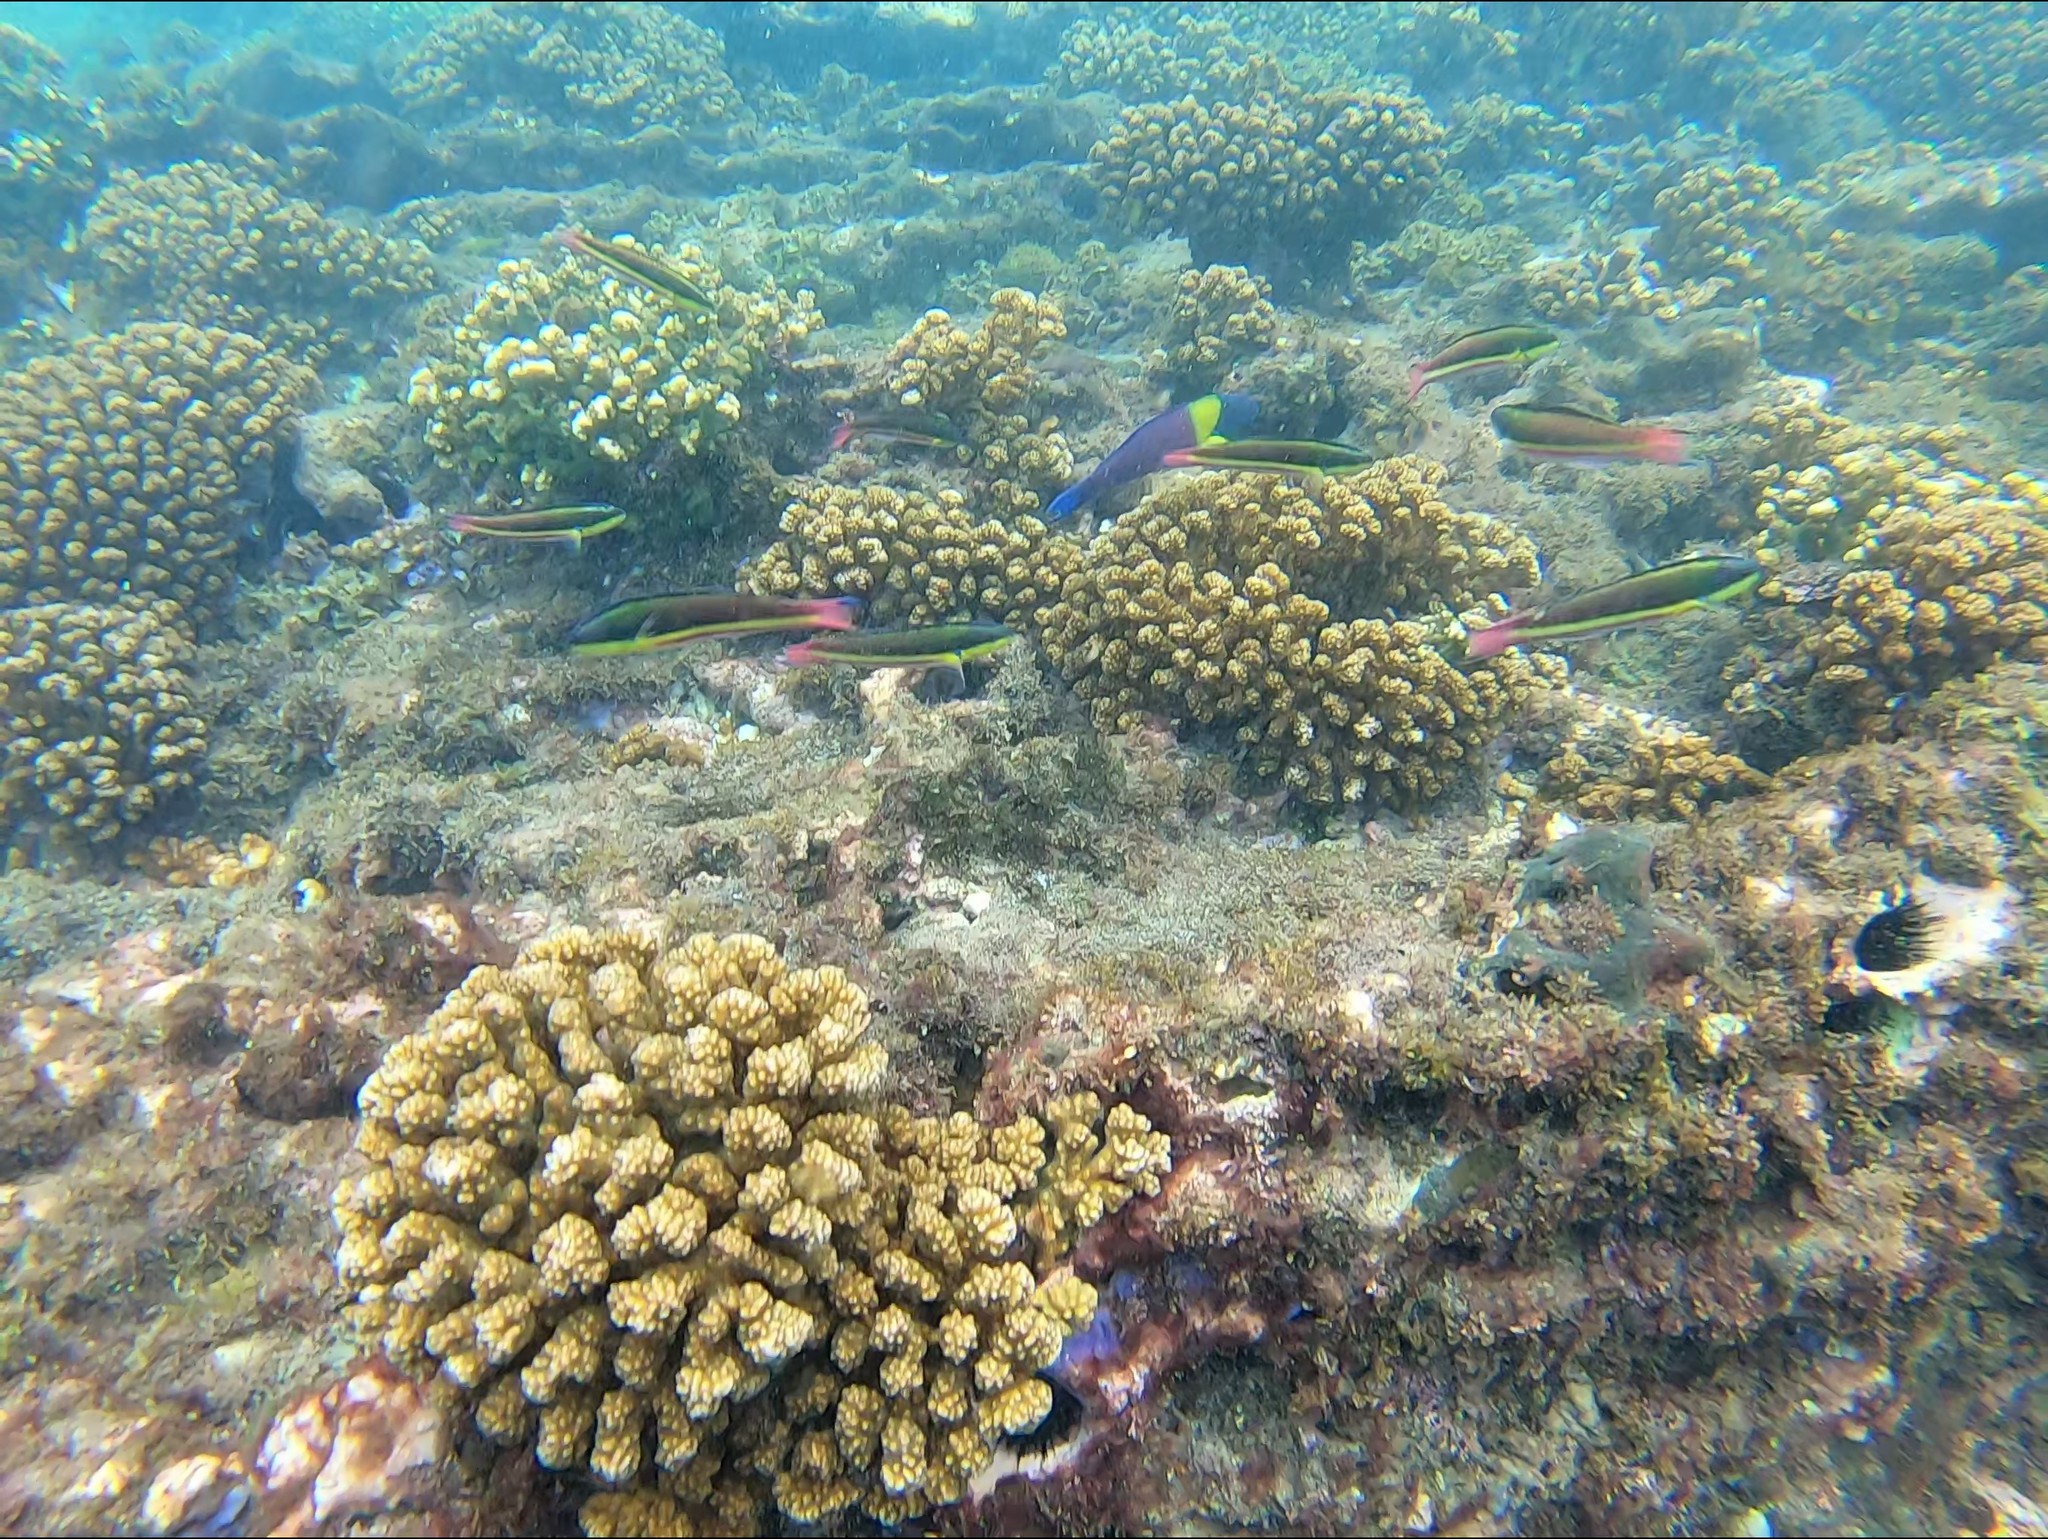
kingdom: Animalia
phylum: Chordata
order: Perciformes
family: Labridae
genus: Thalassoma
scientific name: Thalassoma lucasanum
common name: Cortez rainbow wrasse
